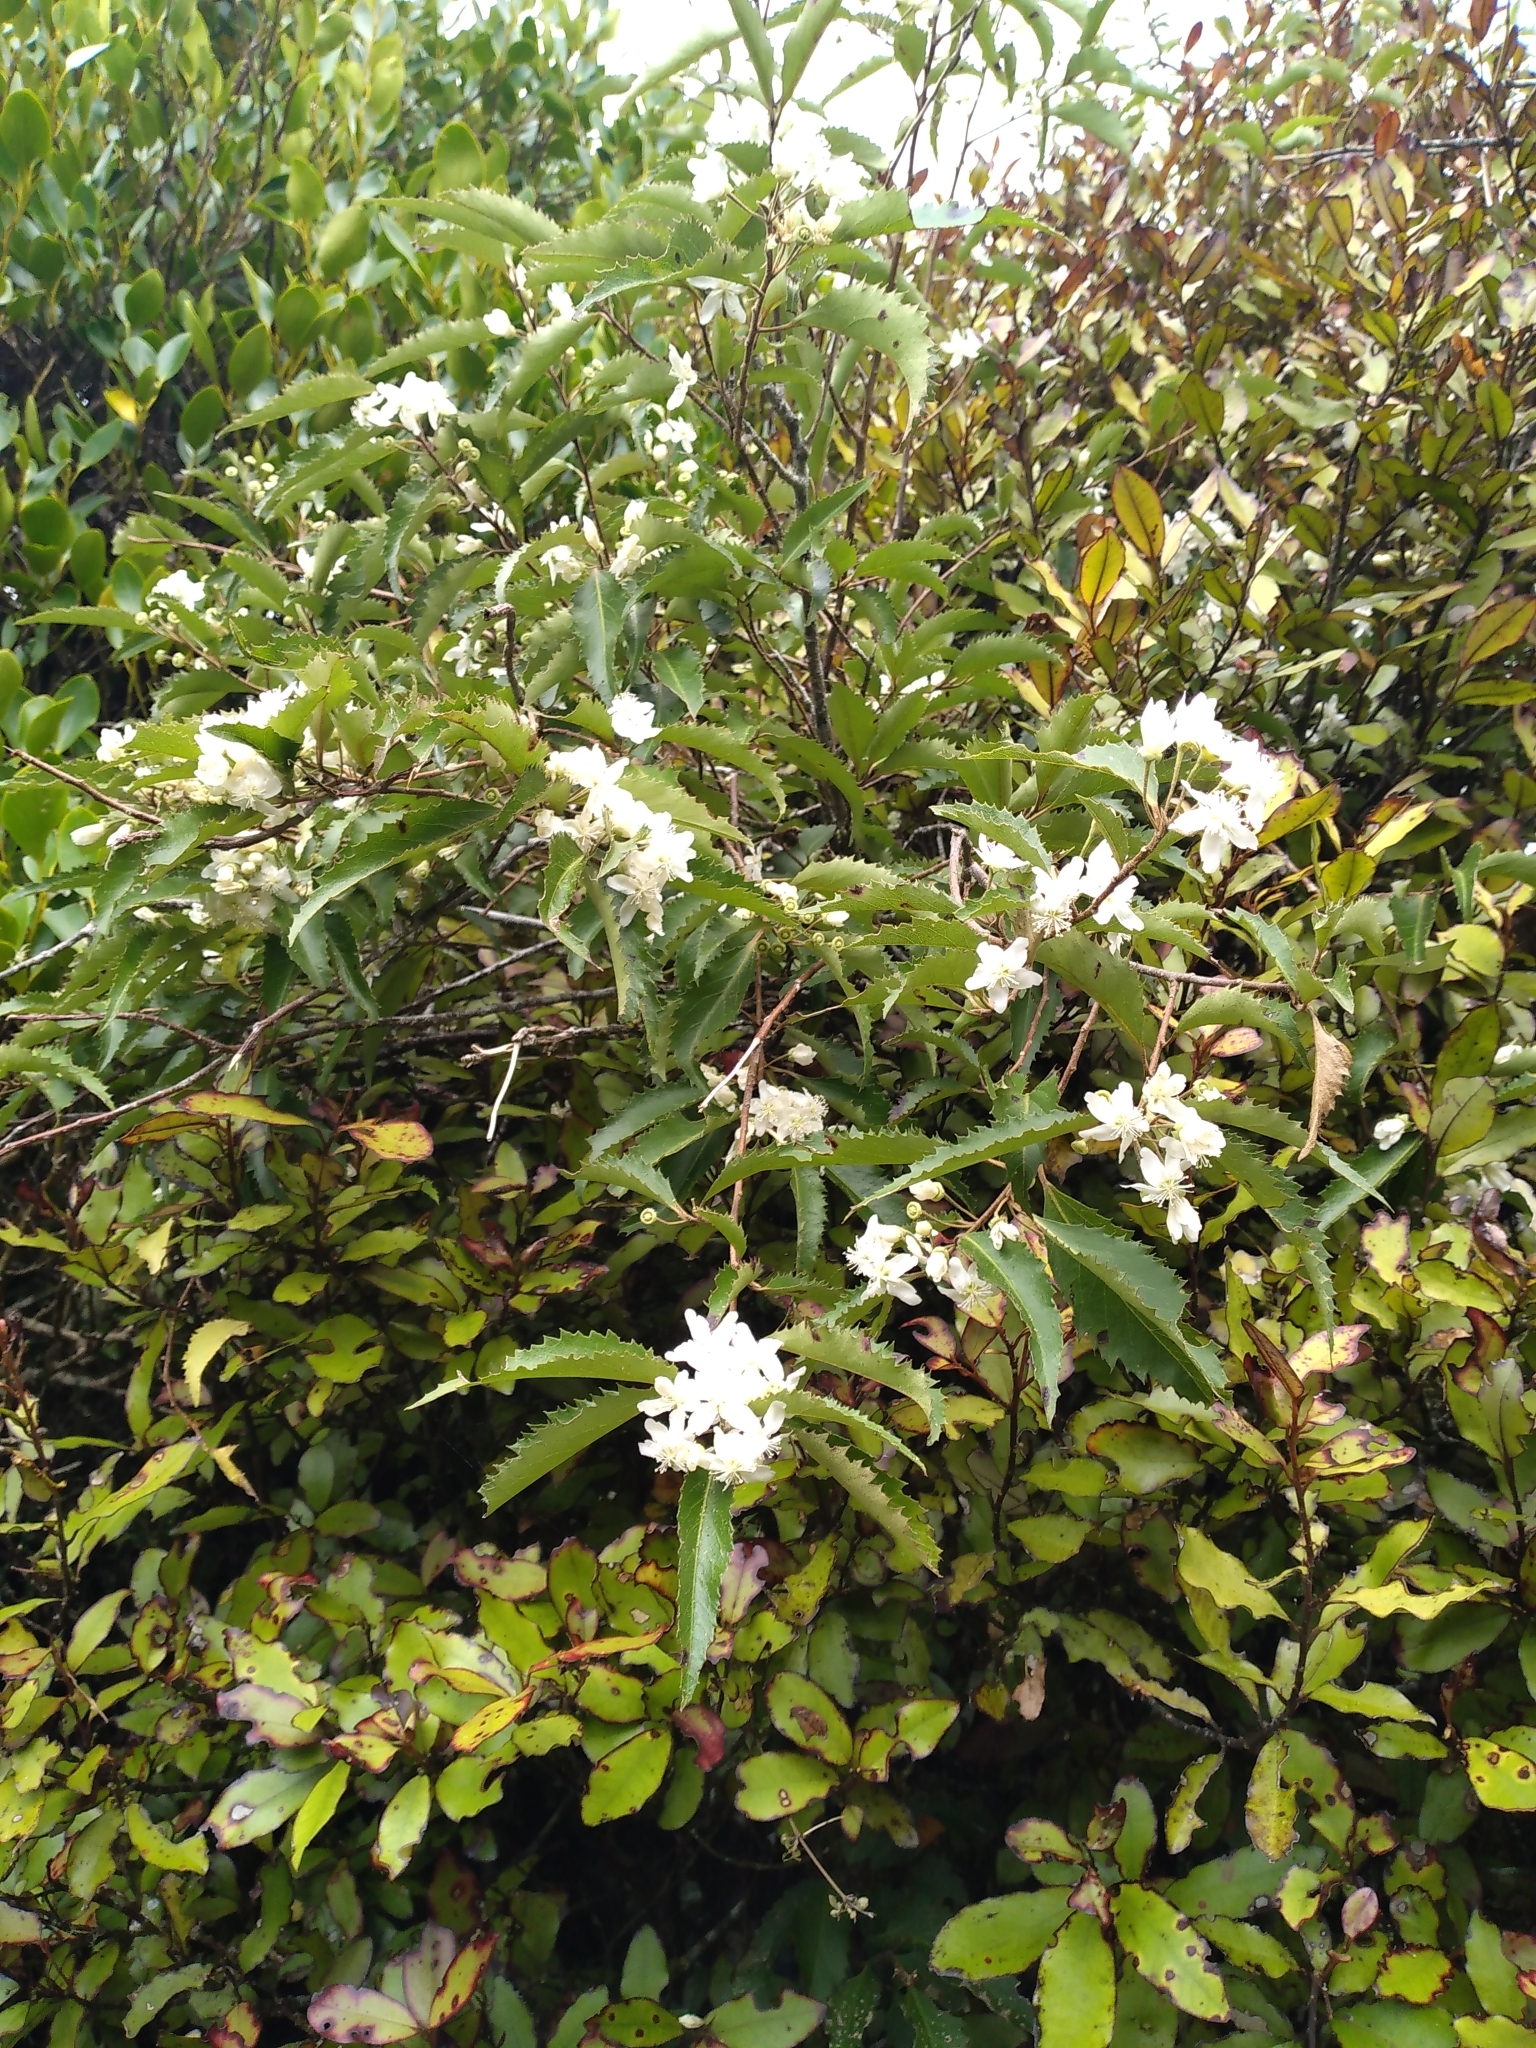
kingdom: Plantae
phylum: Tracheophyta
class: Magnoliopsida
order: Malvales
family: Malvaceae
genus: Hoheria
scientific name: Hoheria sexstylosa
